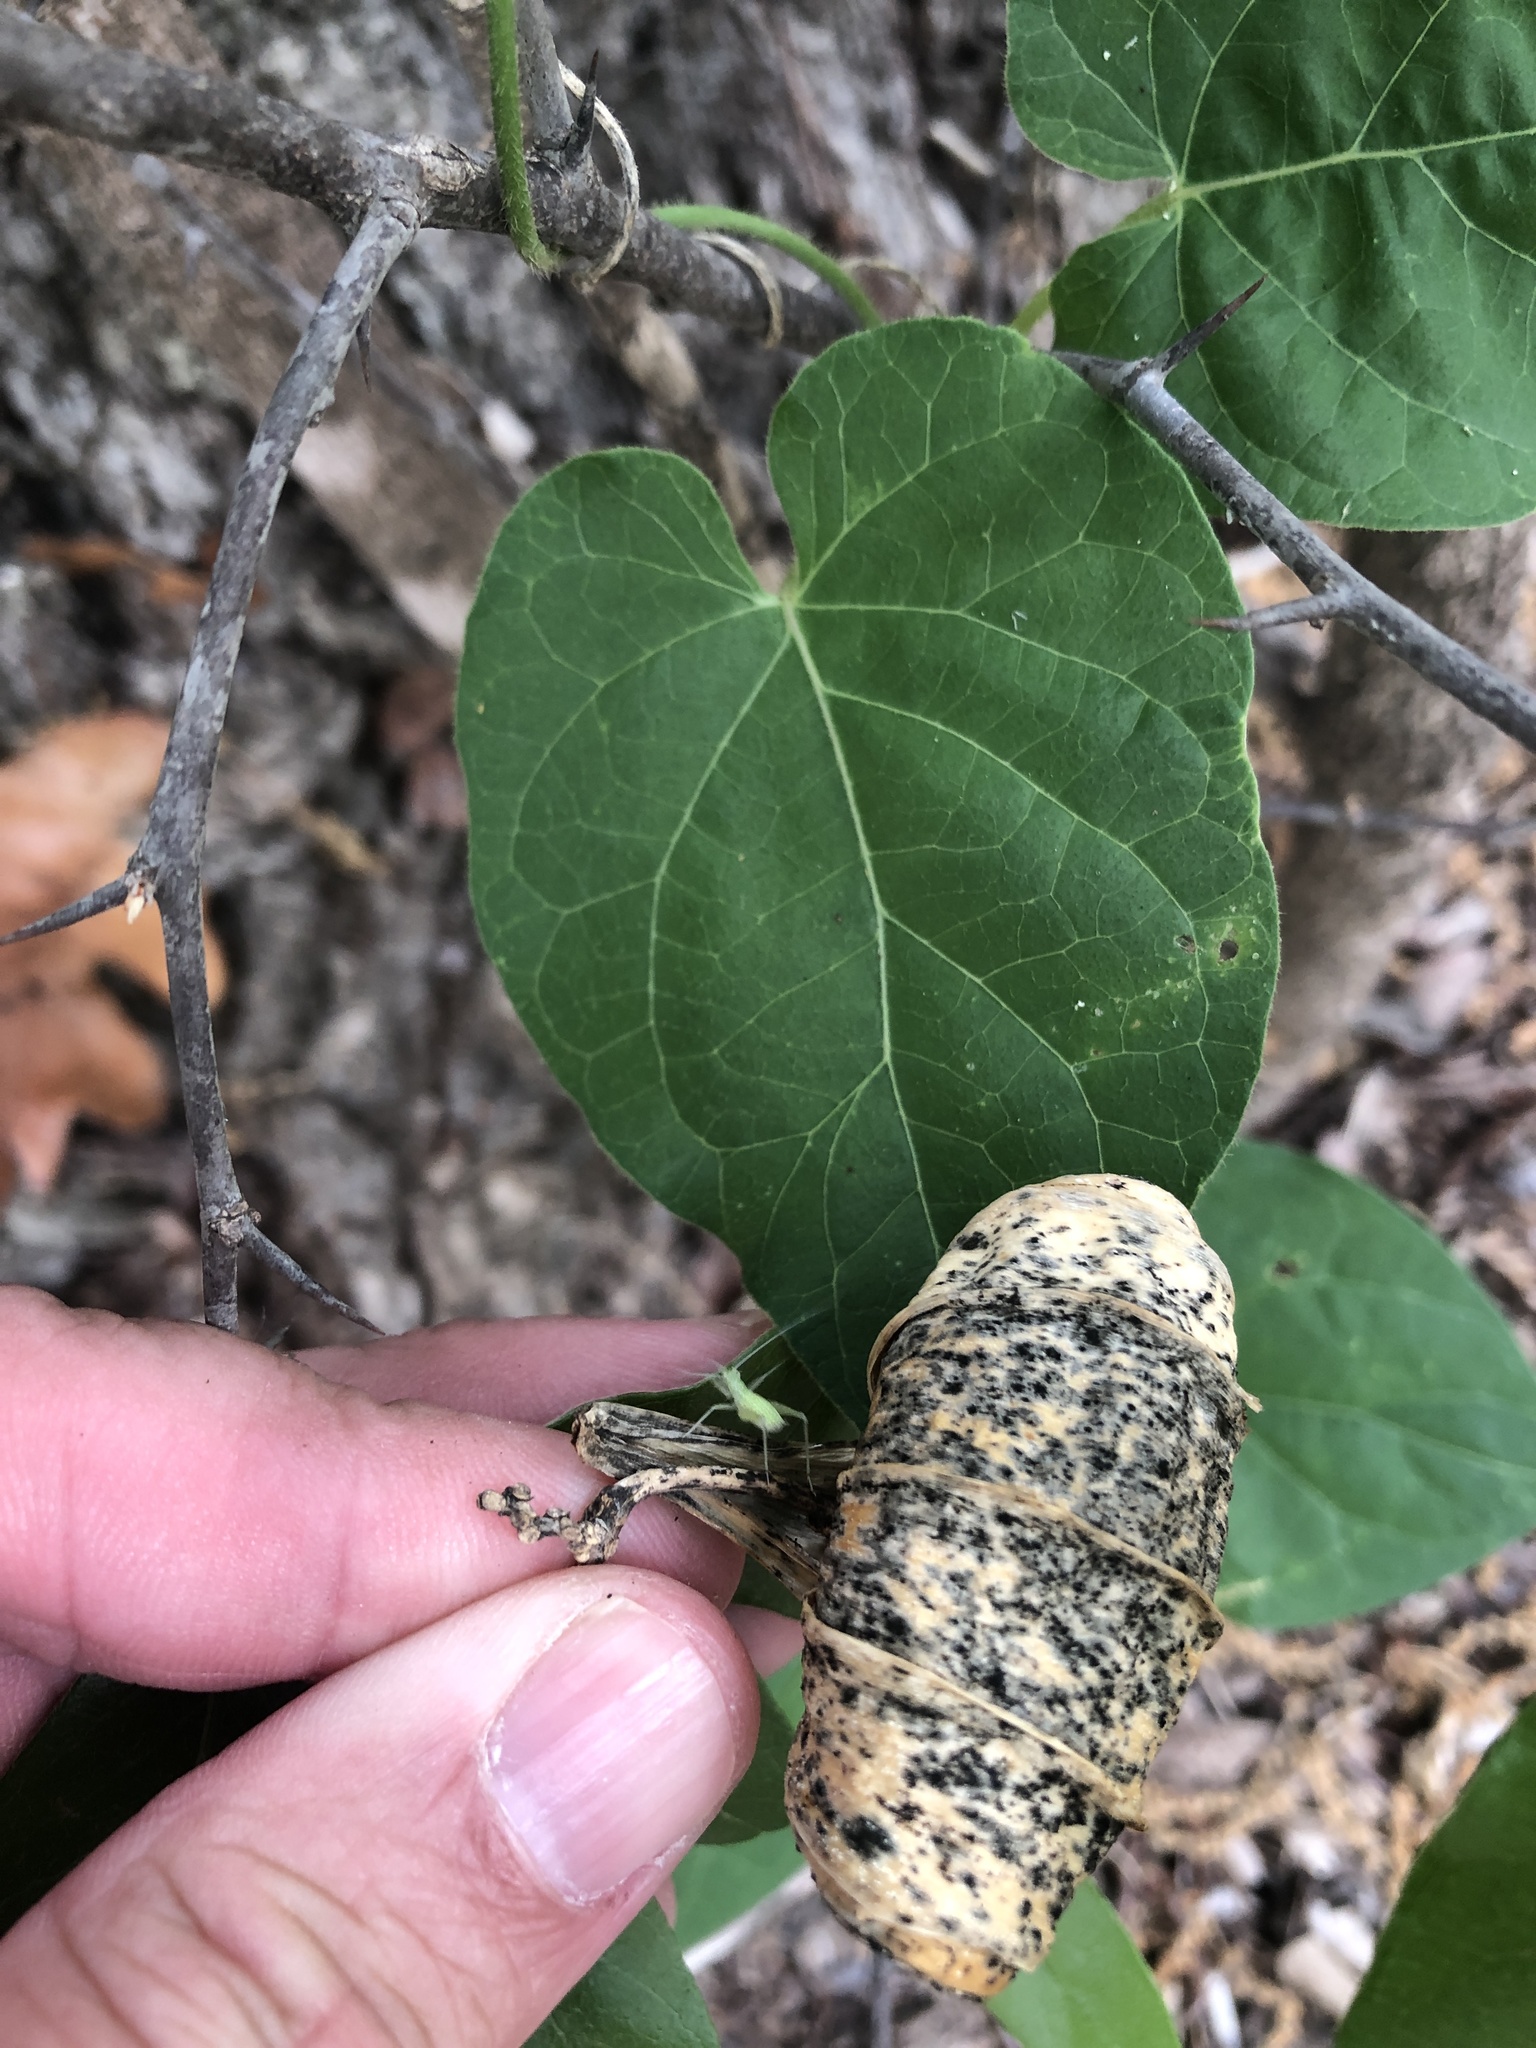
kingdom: Plantae
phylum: Tracheophyta
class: Magnoliopsida
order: Gentianales
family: Apocynaceae
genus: Gonolobus
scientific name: Gonolobus suberosus
